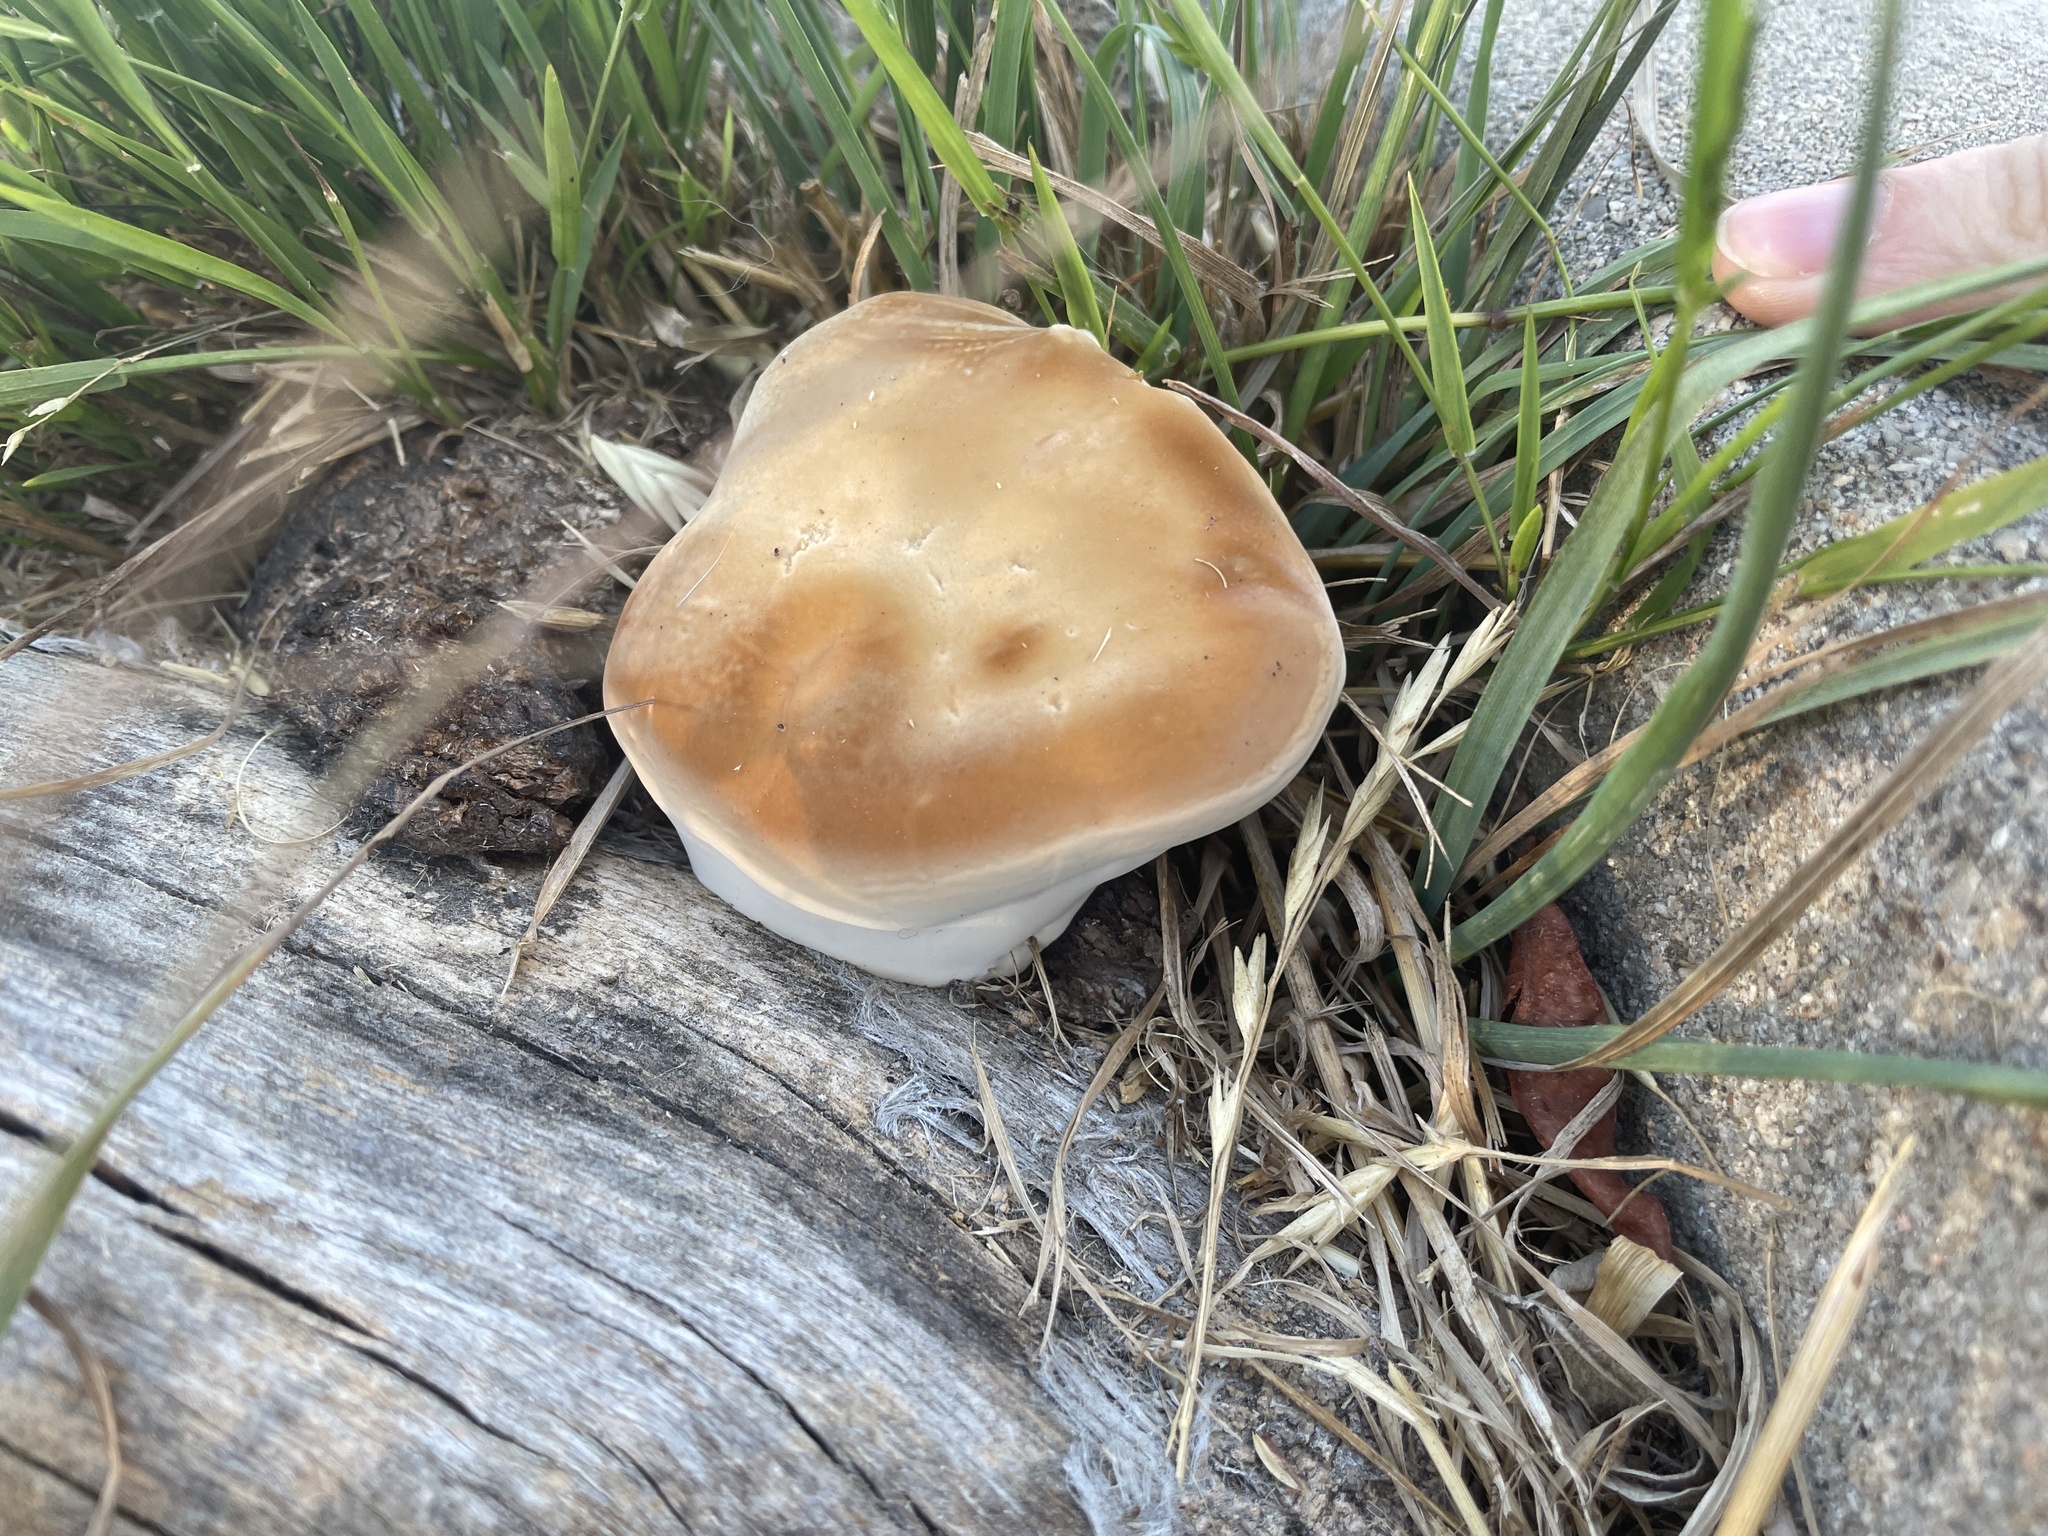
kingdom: Fungi
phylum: Basidiomycota
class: Agaricomycetes
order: Polyporales
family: Polyporaceae
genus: Ganoderma
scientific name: Ganoderma polychromum
